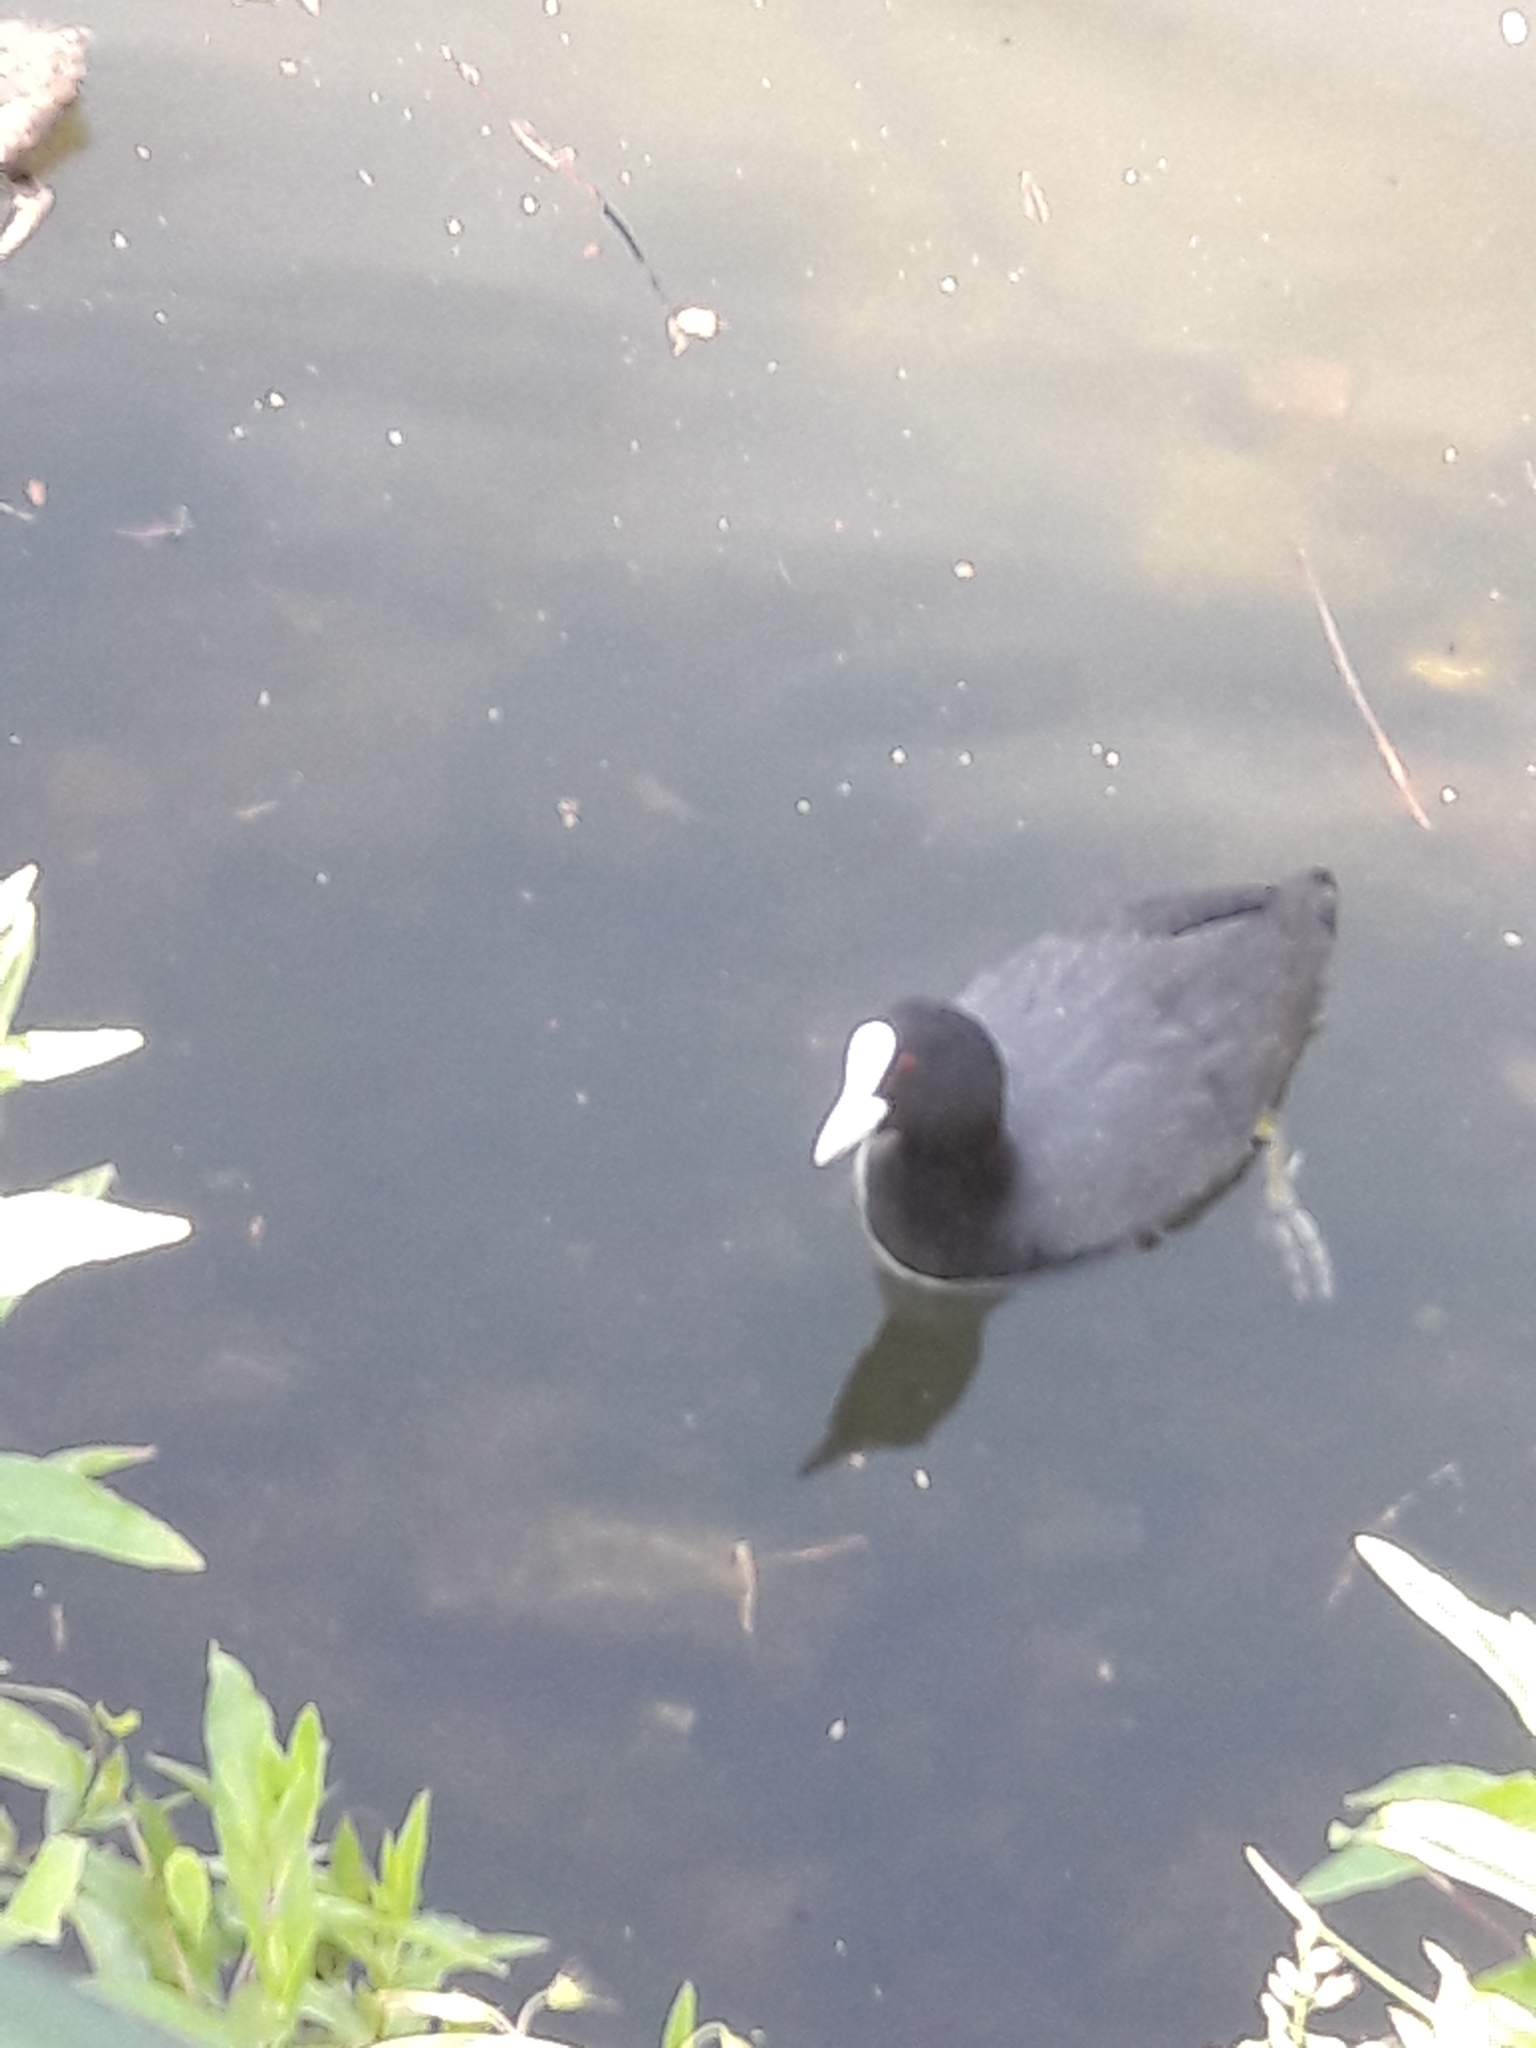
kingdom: Animalia
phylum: Chordata
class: Aves
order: Gruiformes
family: Rallidae
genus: Fulica
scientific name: Fulica atra
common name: Eurasian coot
